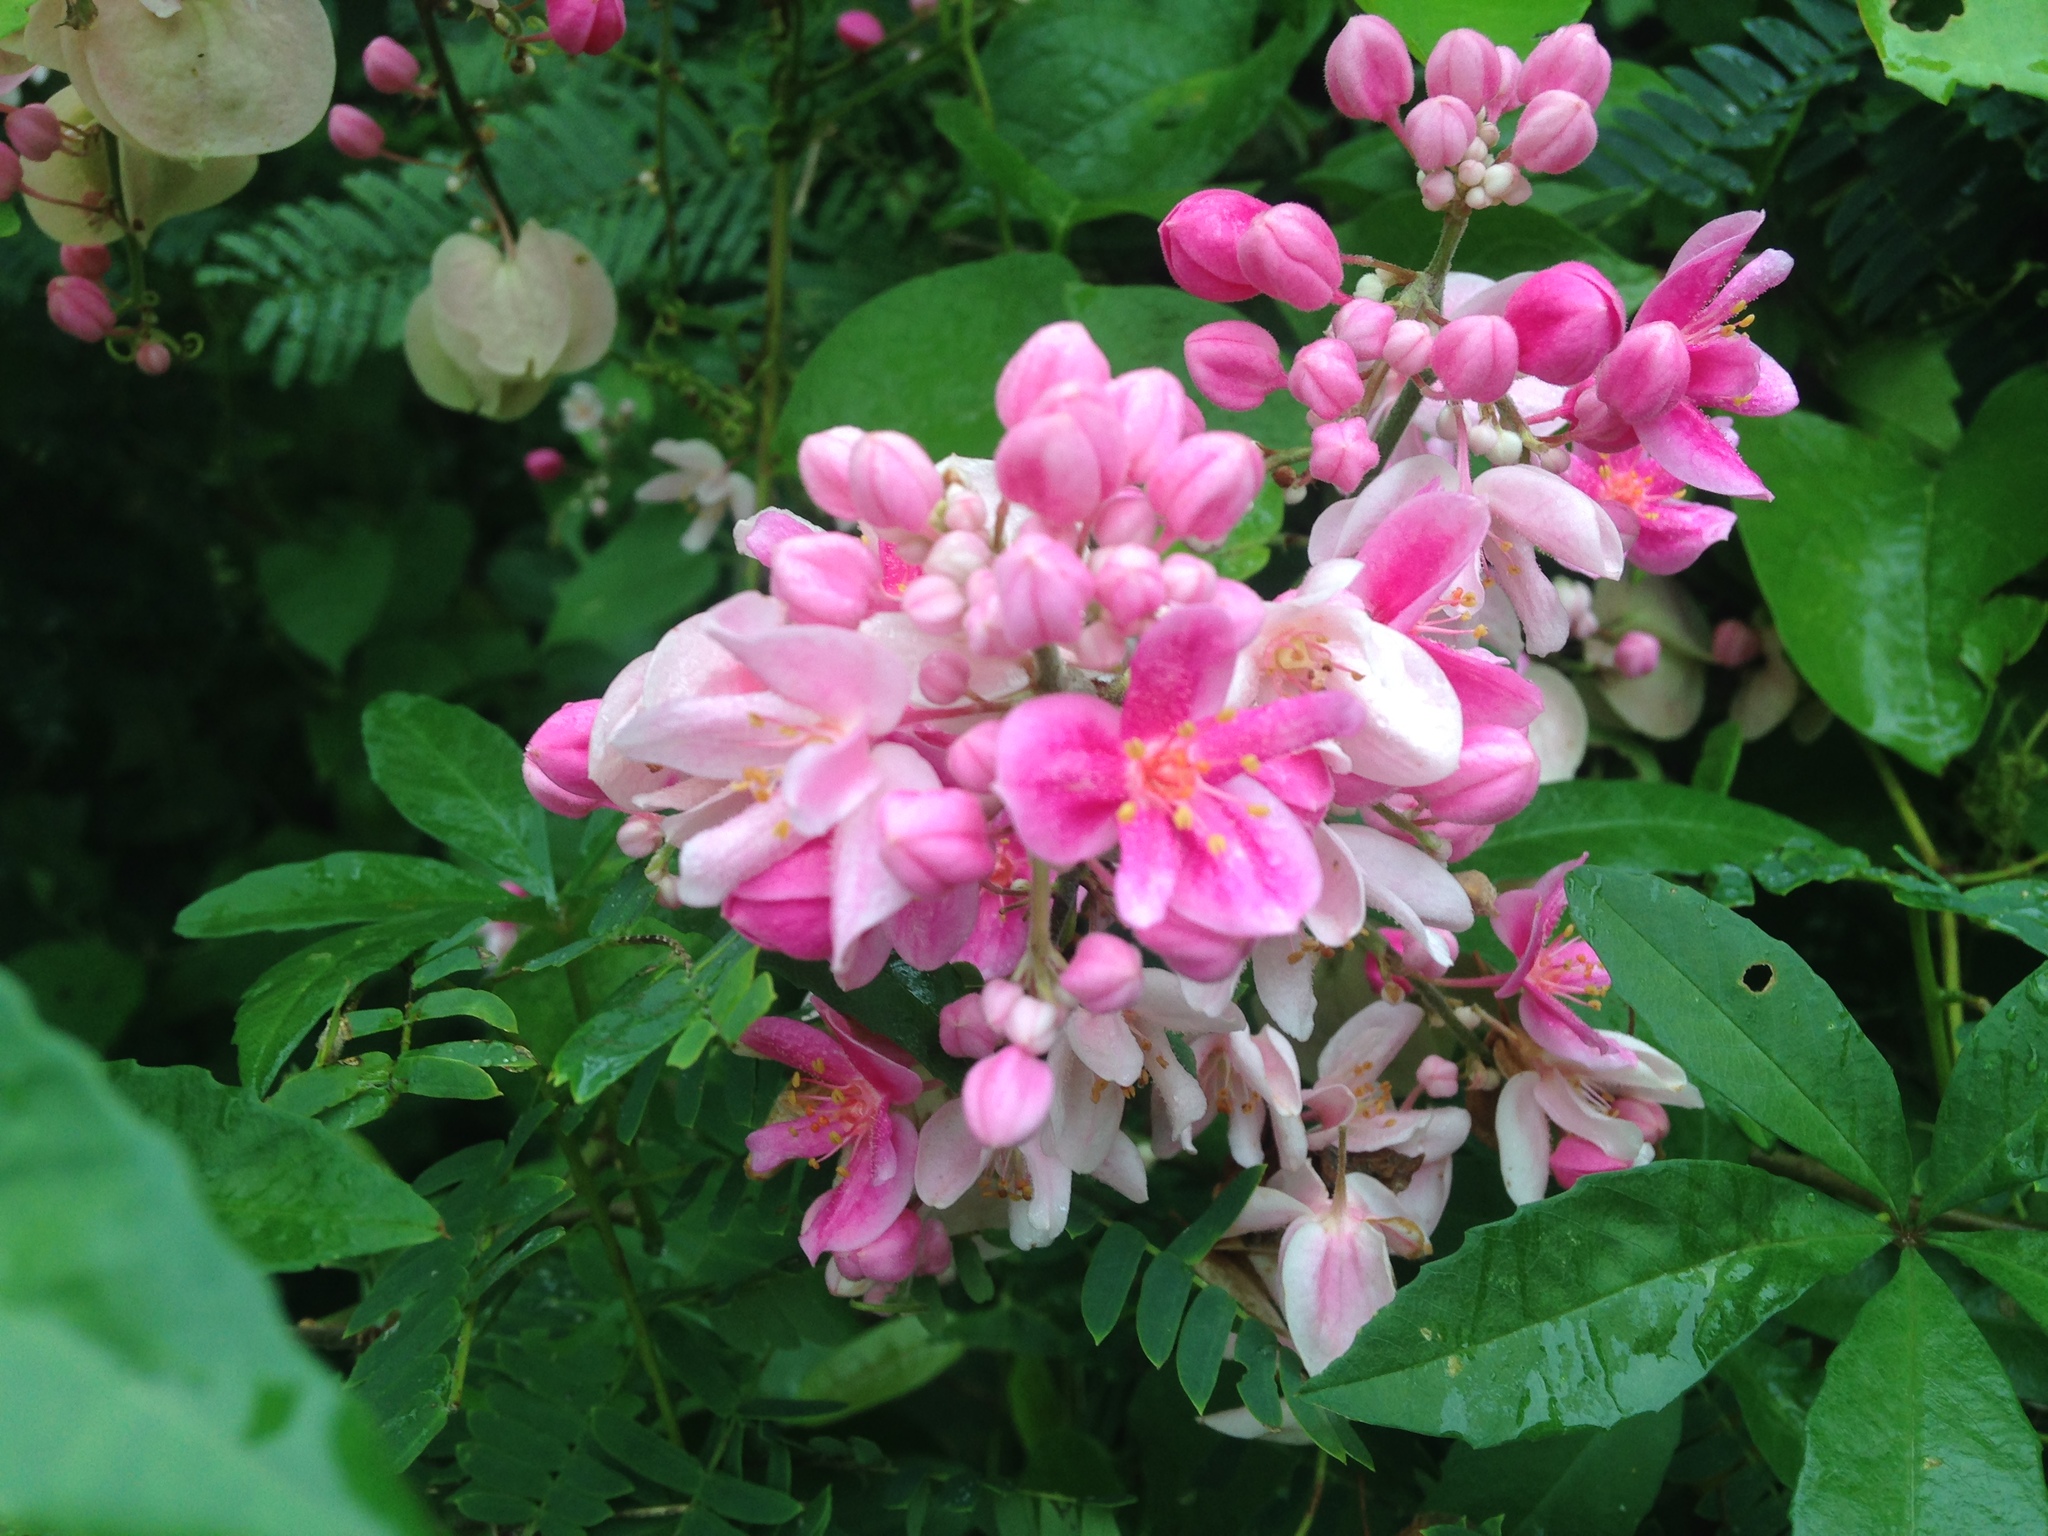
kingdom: Plantae
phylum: Tracheophyta
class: Magnoliopsida
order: Caryophyllales
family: Polygonaceae
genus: Antigonon
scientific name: Antigonon leptopus
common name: Coral vine
